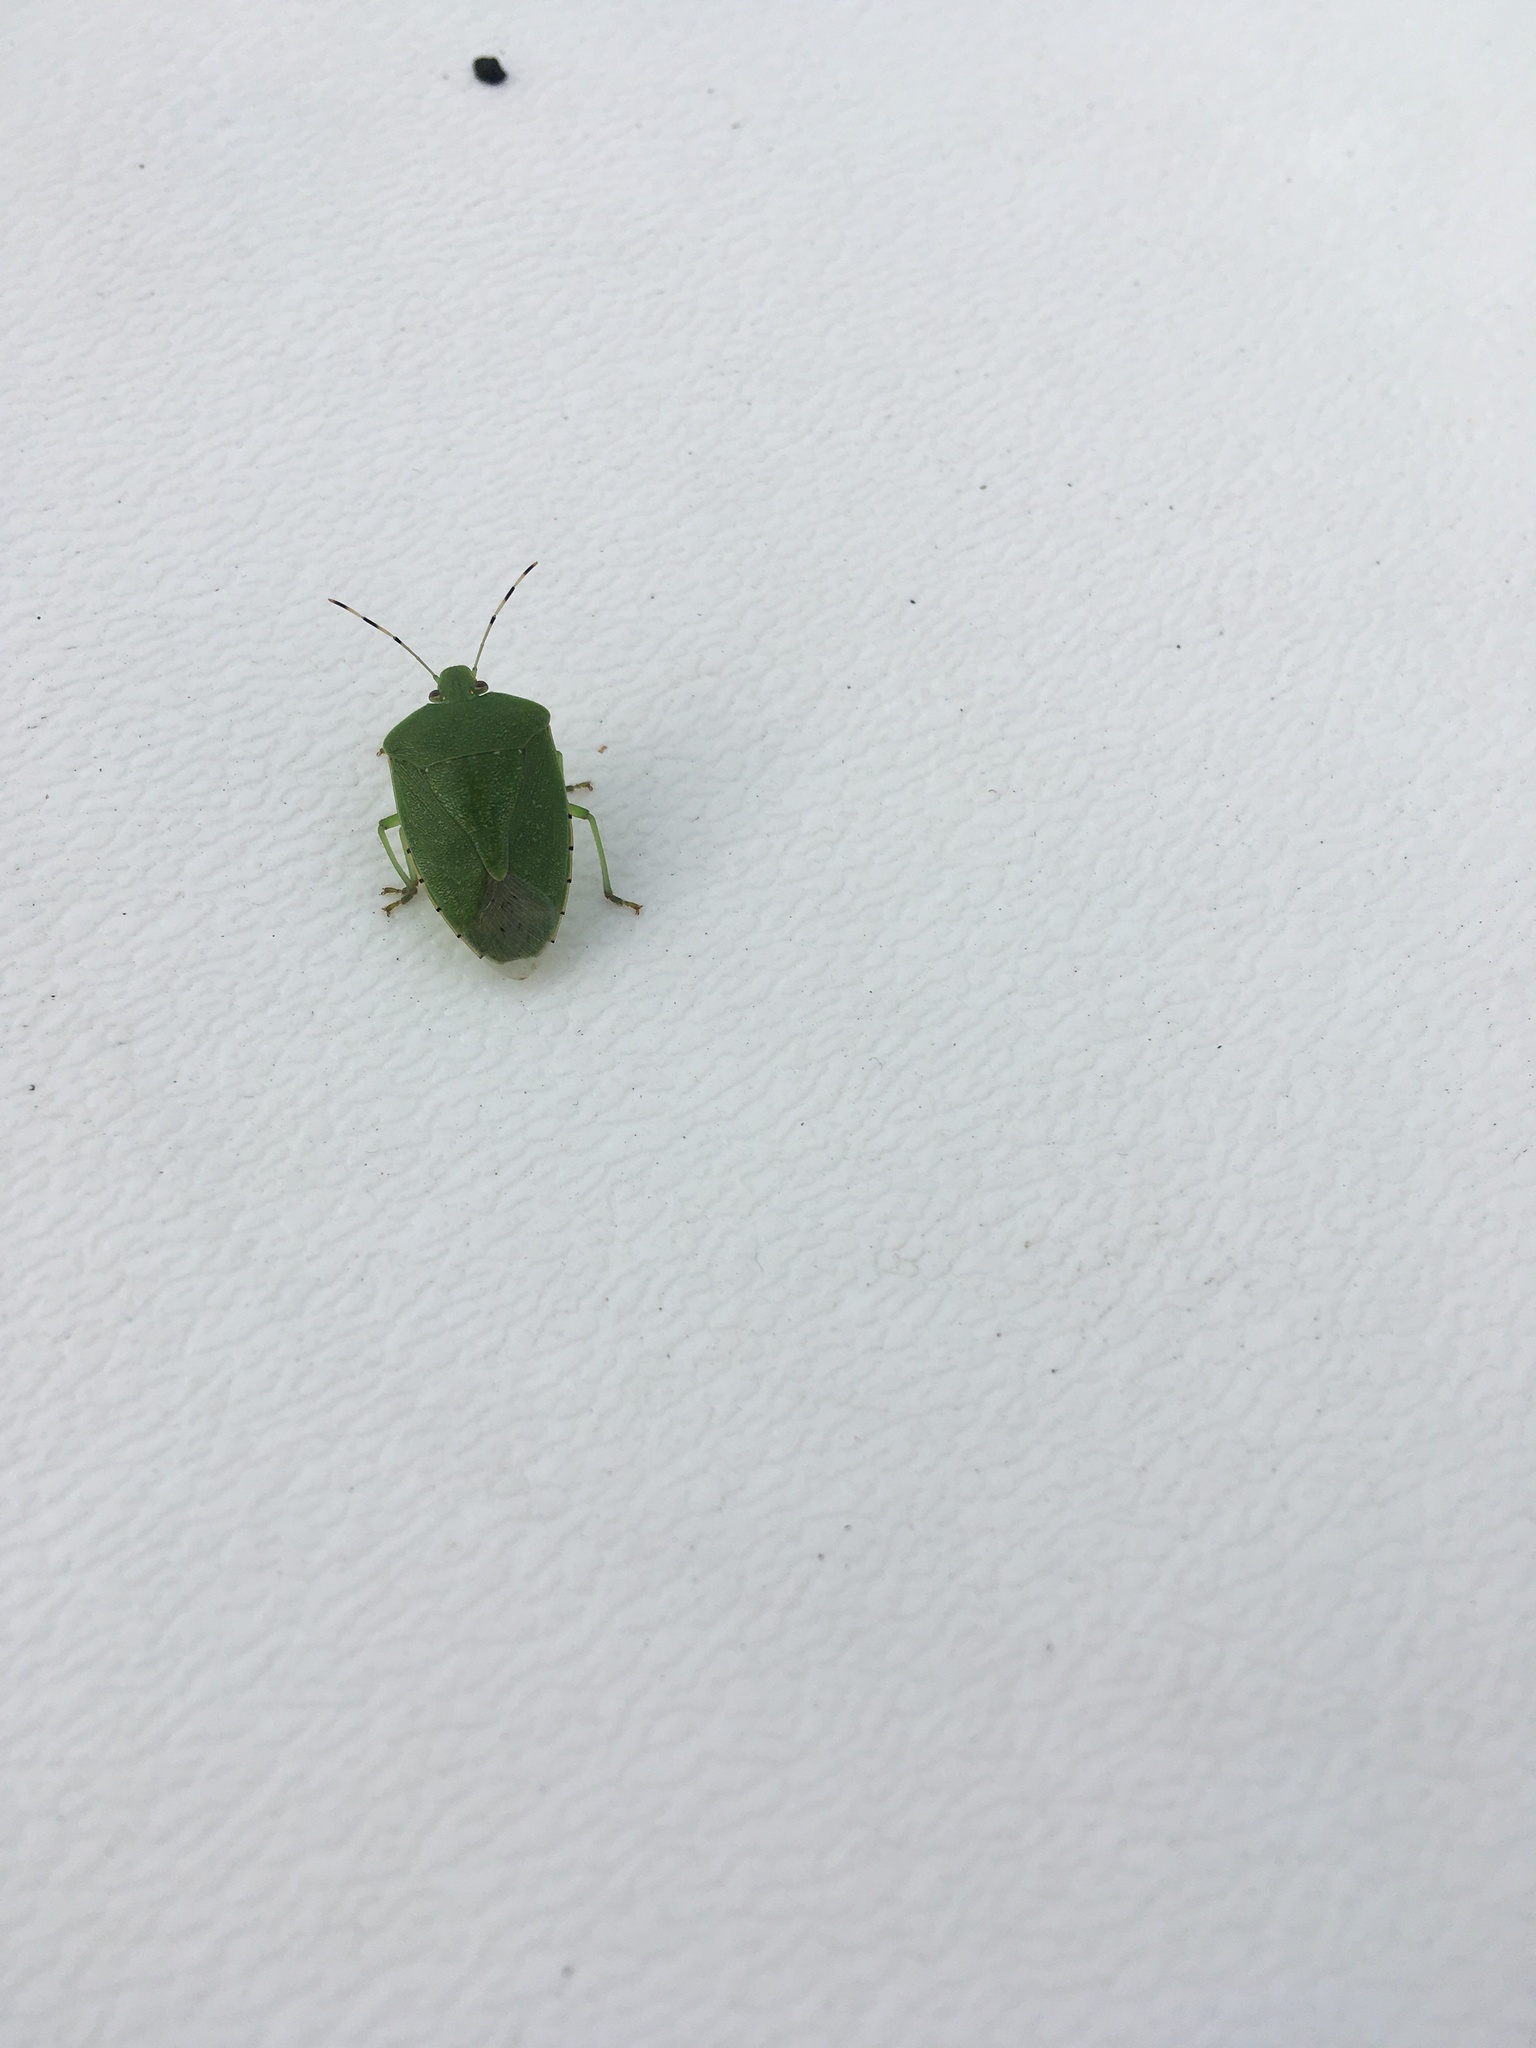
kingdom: Animalia
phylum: Arthropoda
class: Insecta
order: Hemiptera
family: Pentatomidae
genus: Chinavia
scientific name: Chinavia hilaris
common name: Green stink bug
